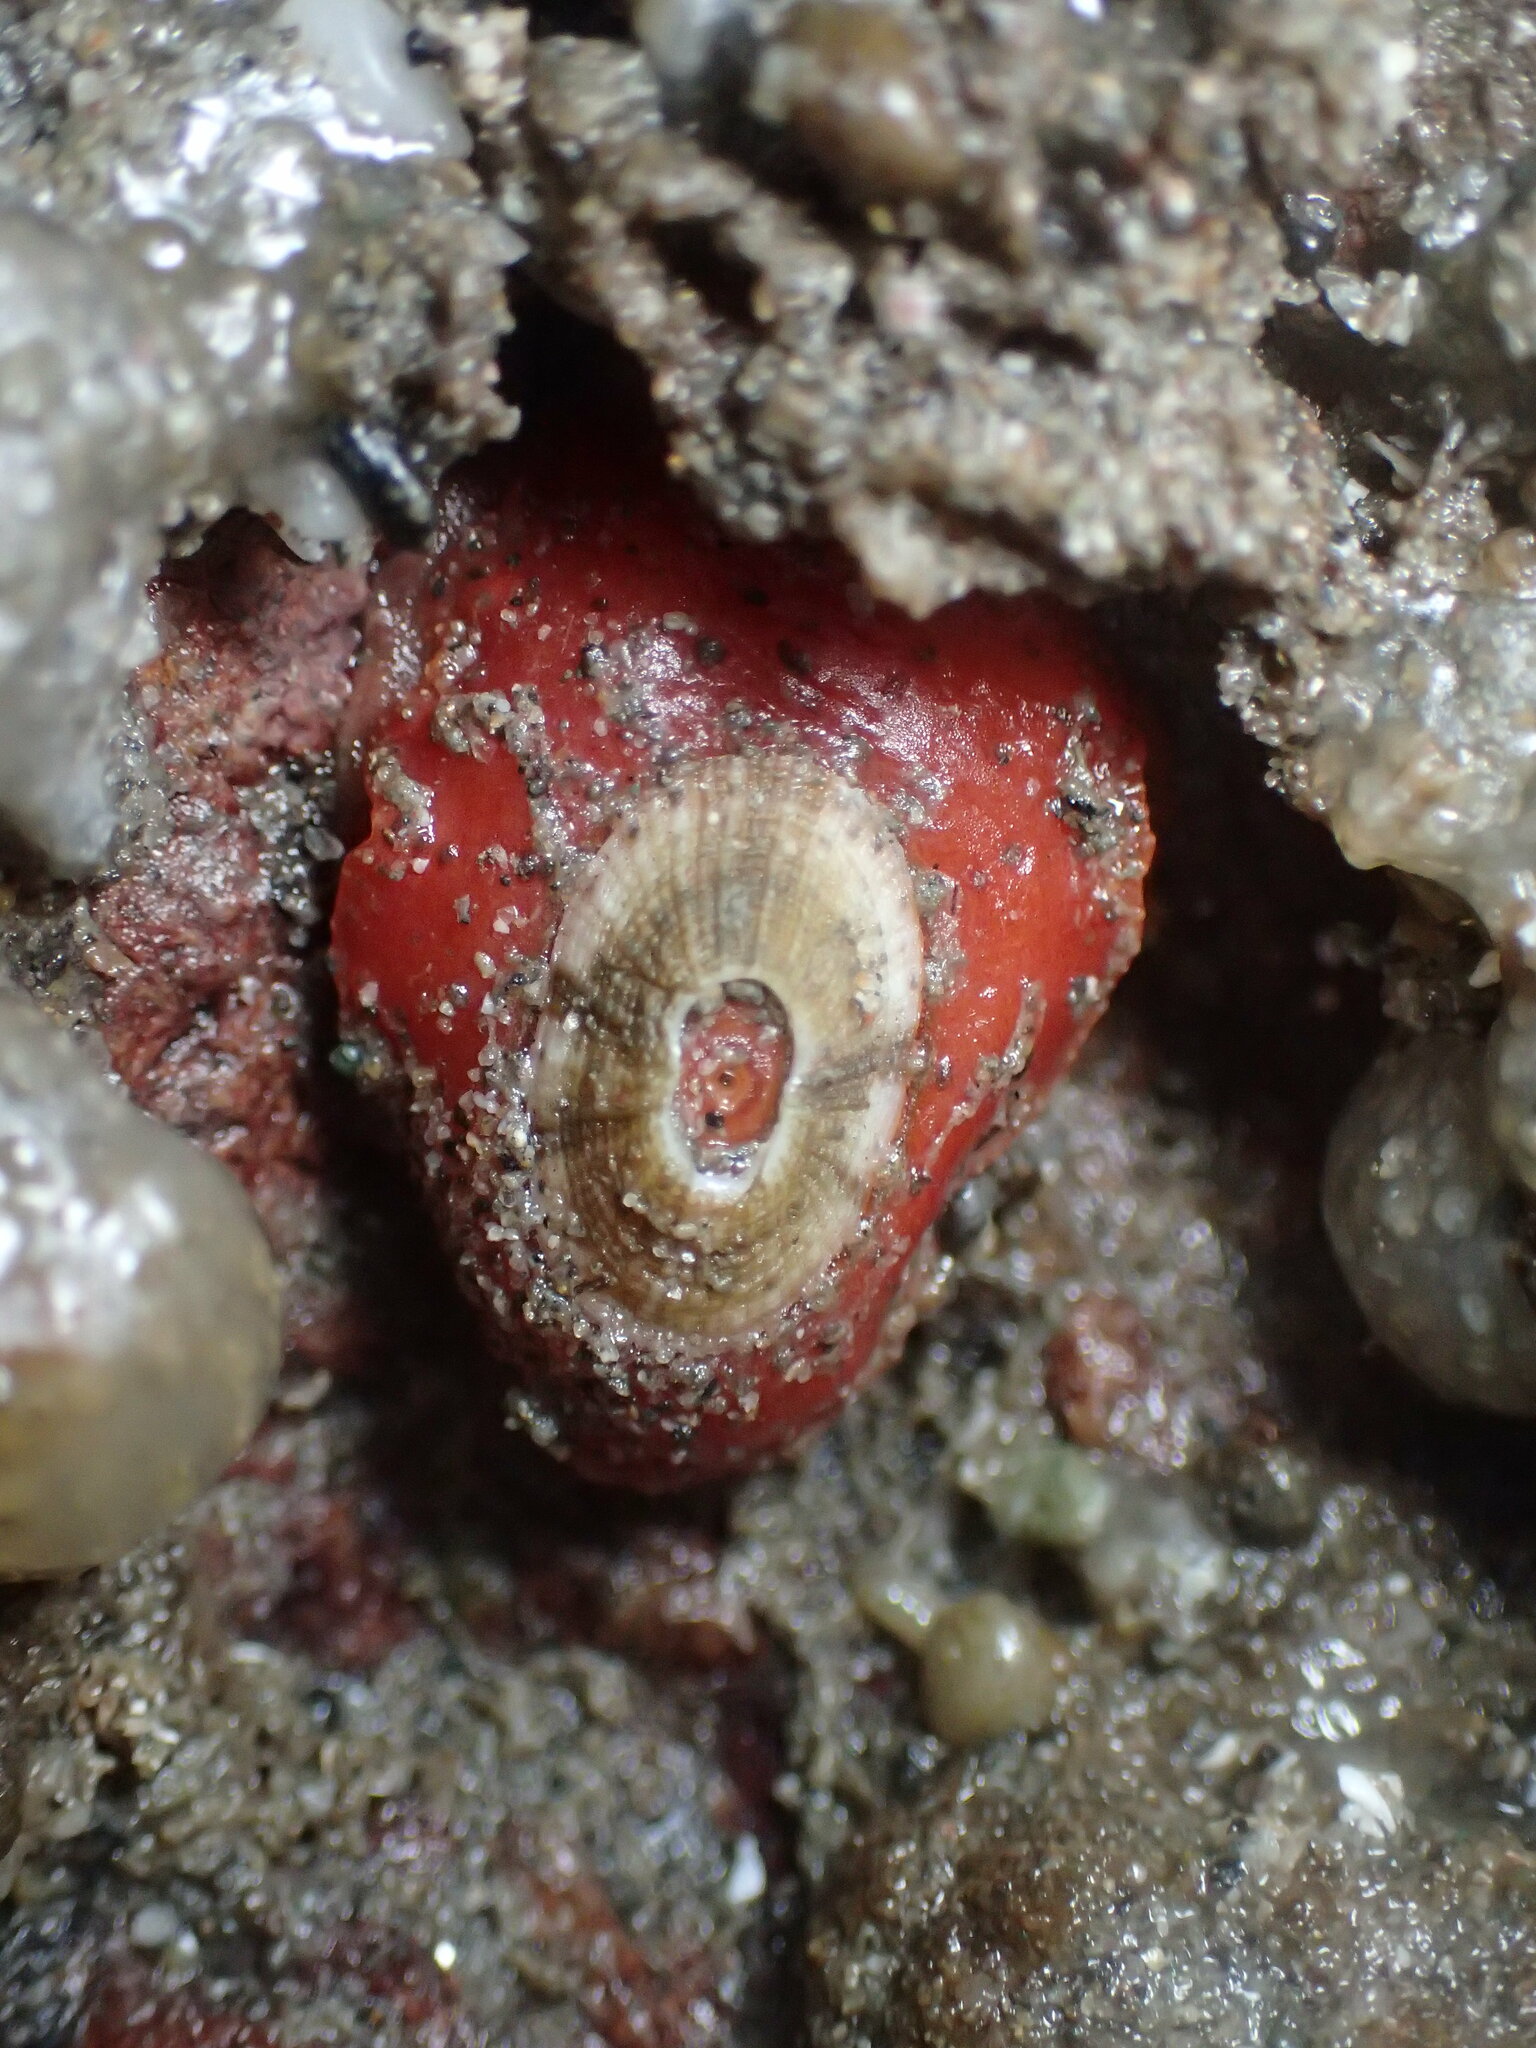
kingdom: Animalia
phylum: Mollusca
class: Gastropoda
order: Lepetellida
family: Fissurellidae
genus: Fissurellidea
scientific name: Fissurellidea bimaculata
